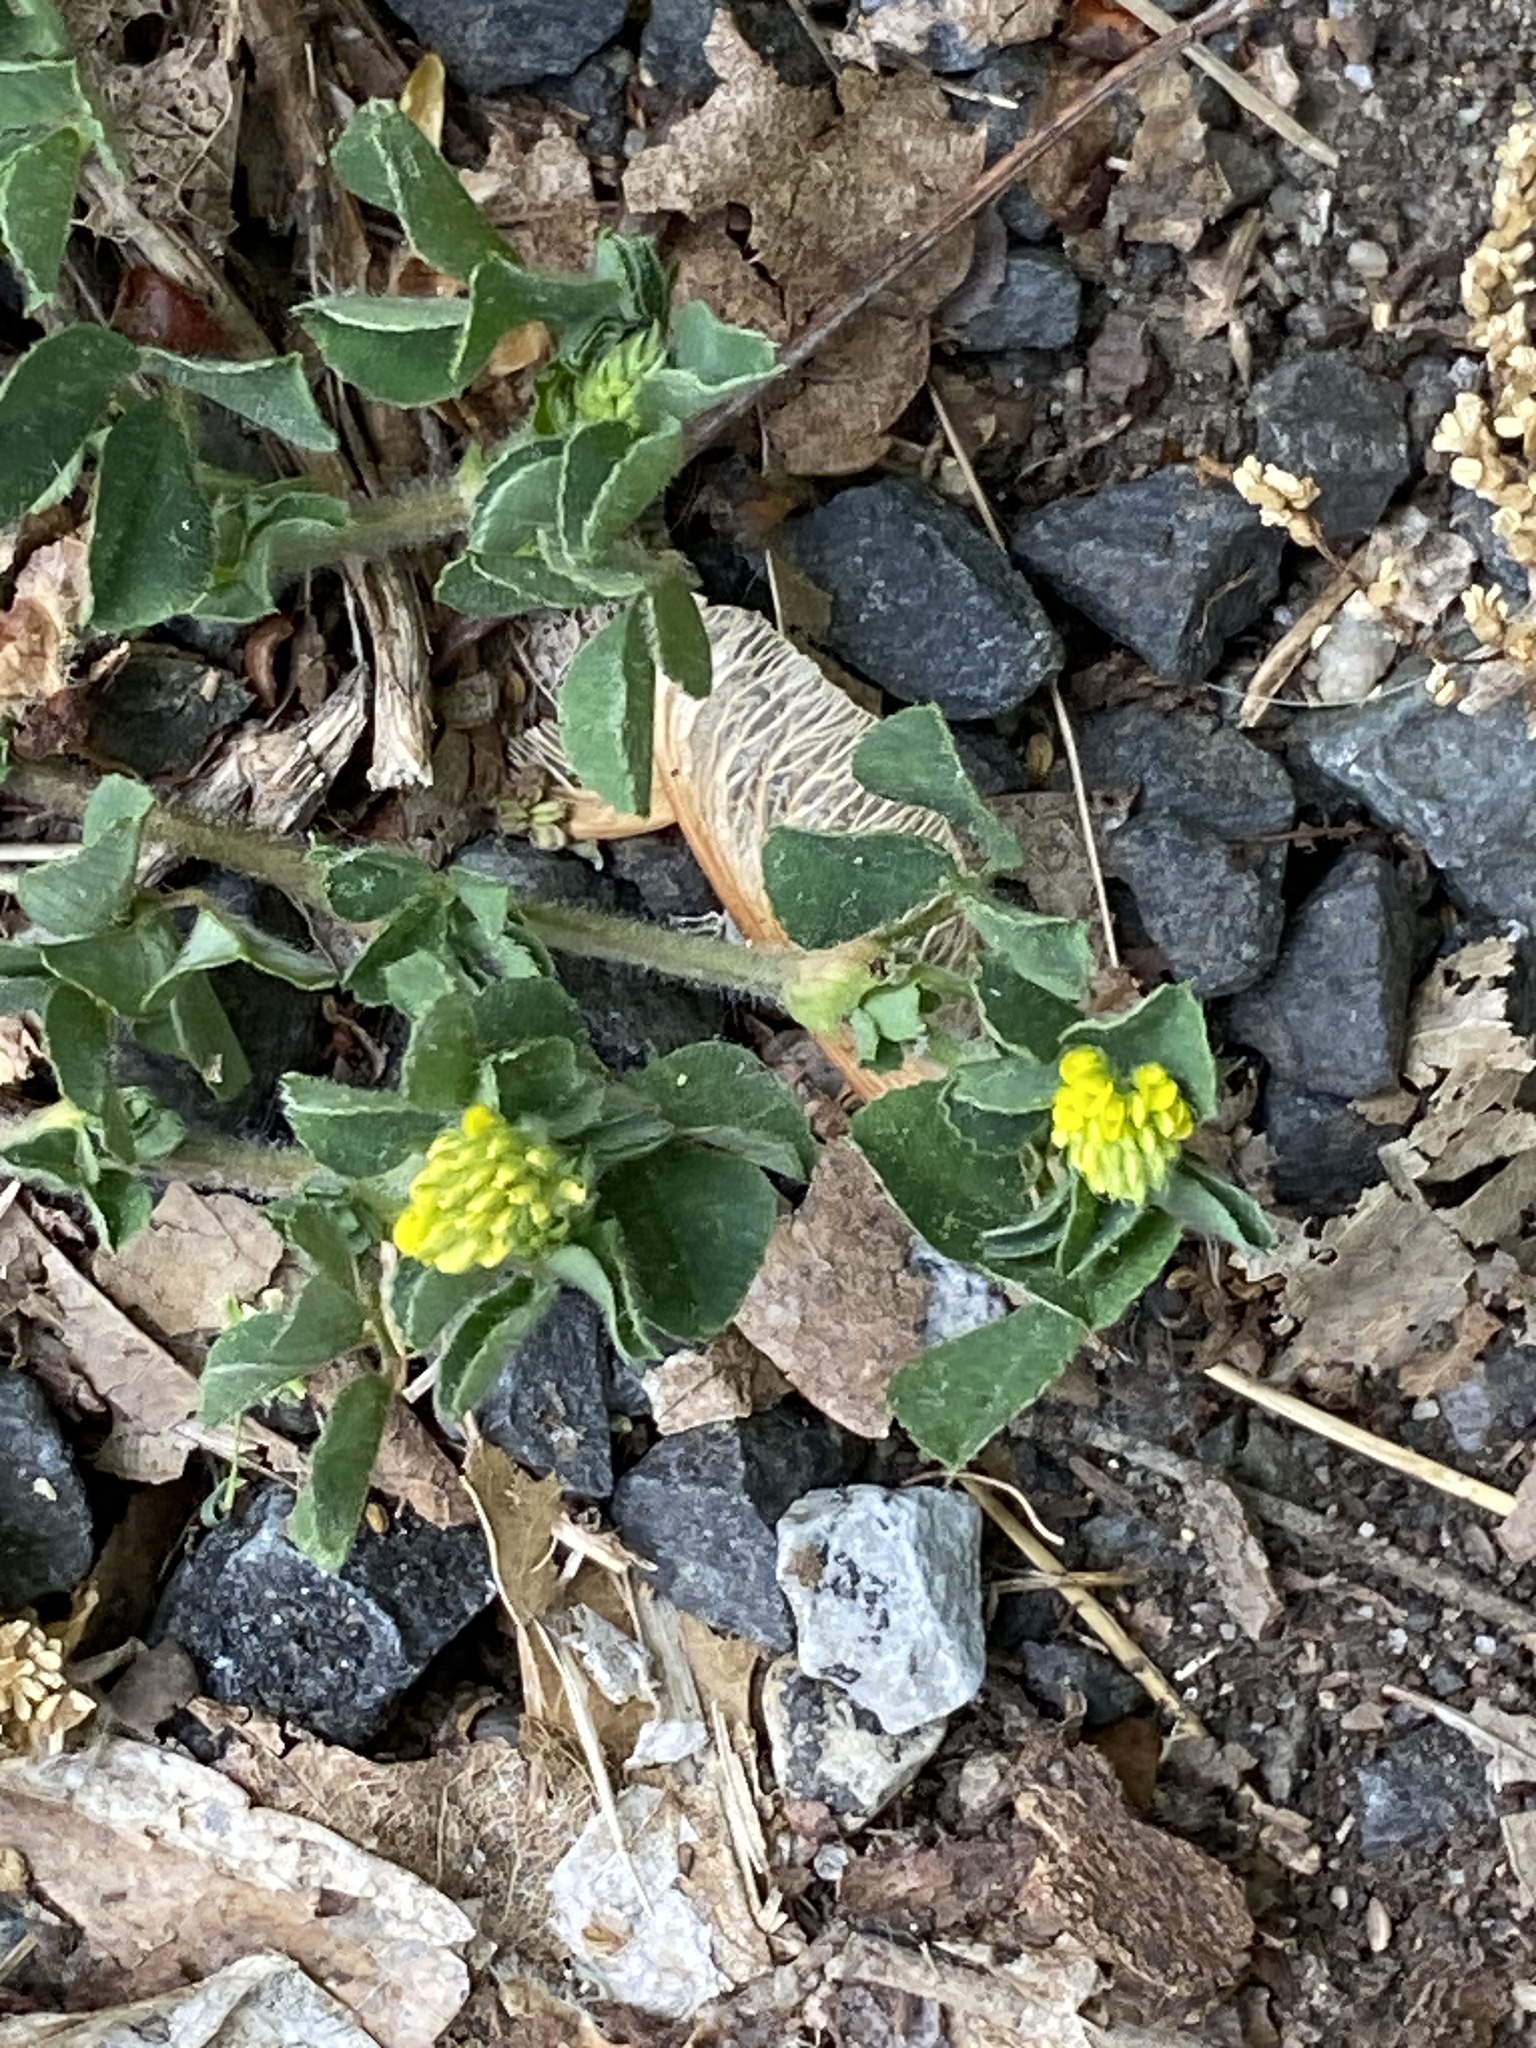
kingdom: Plantae
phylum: Tracheophyta
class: Magnoliopsida
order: Fabales
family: Fabaceae
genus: Medicago
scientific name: Medicago lupulina
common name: Black medick
